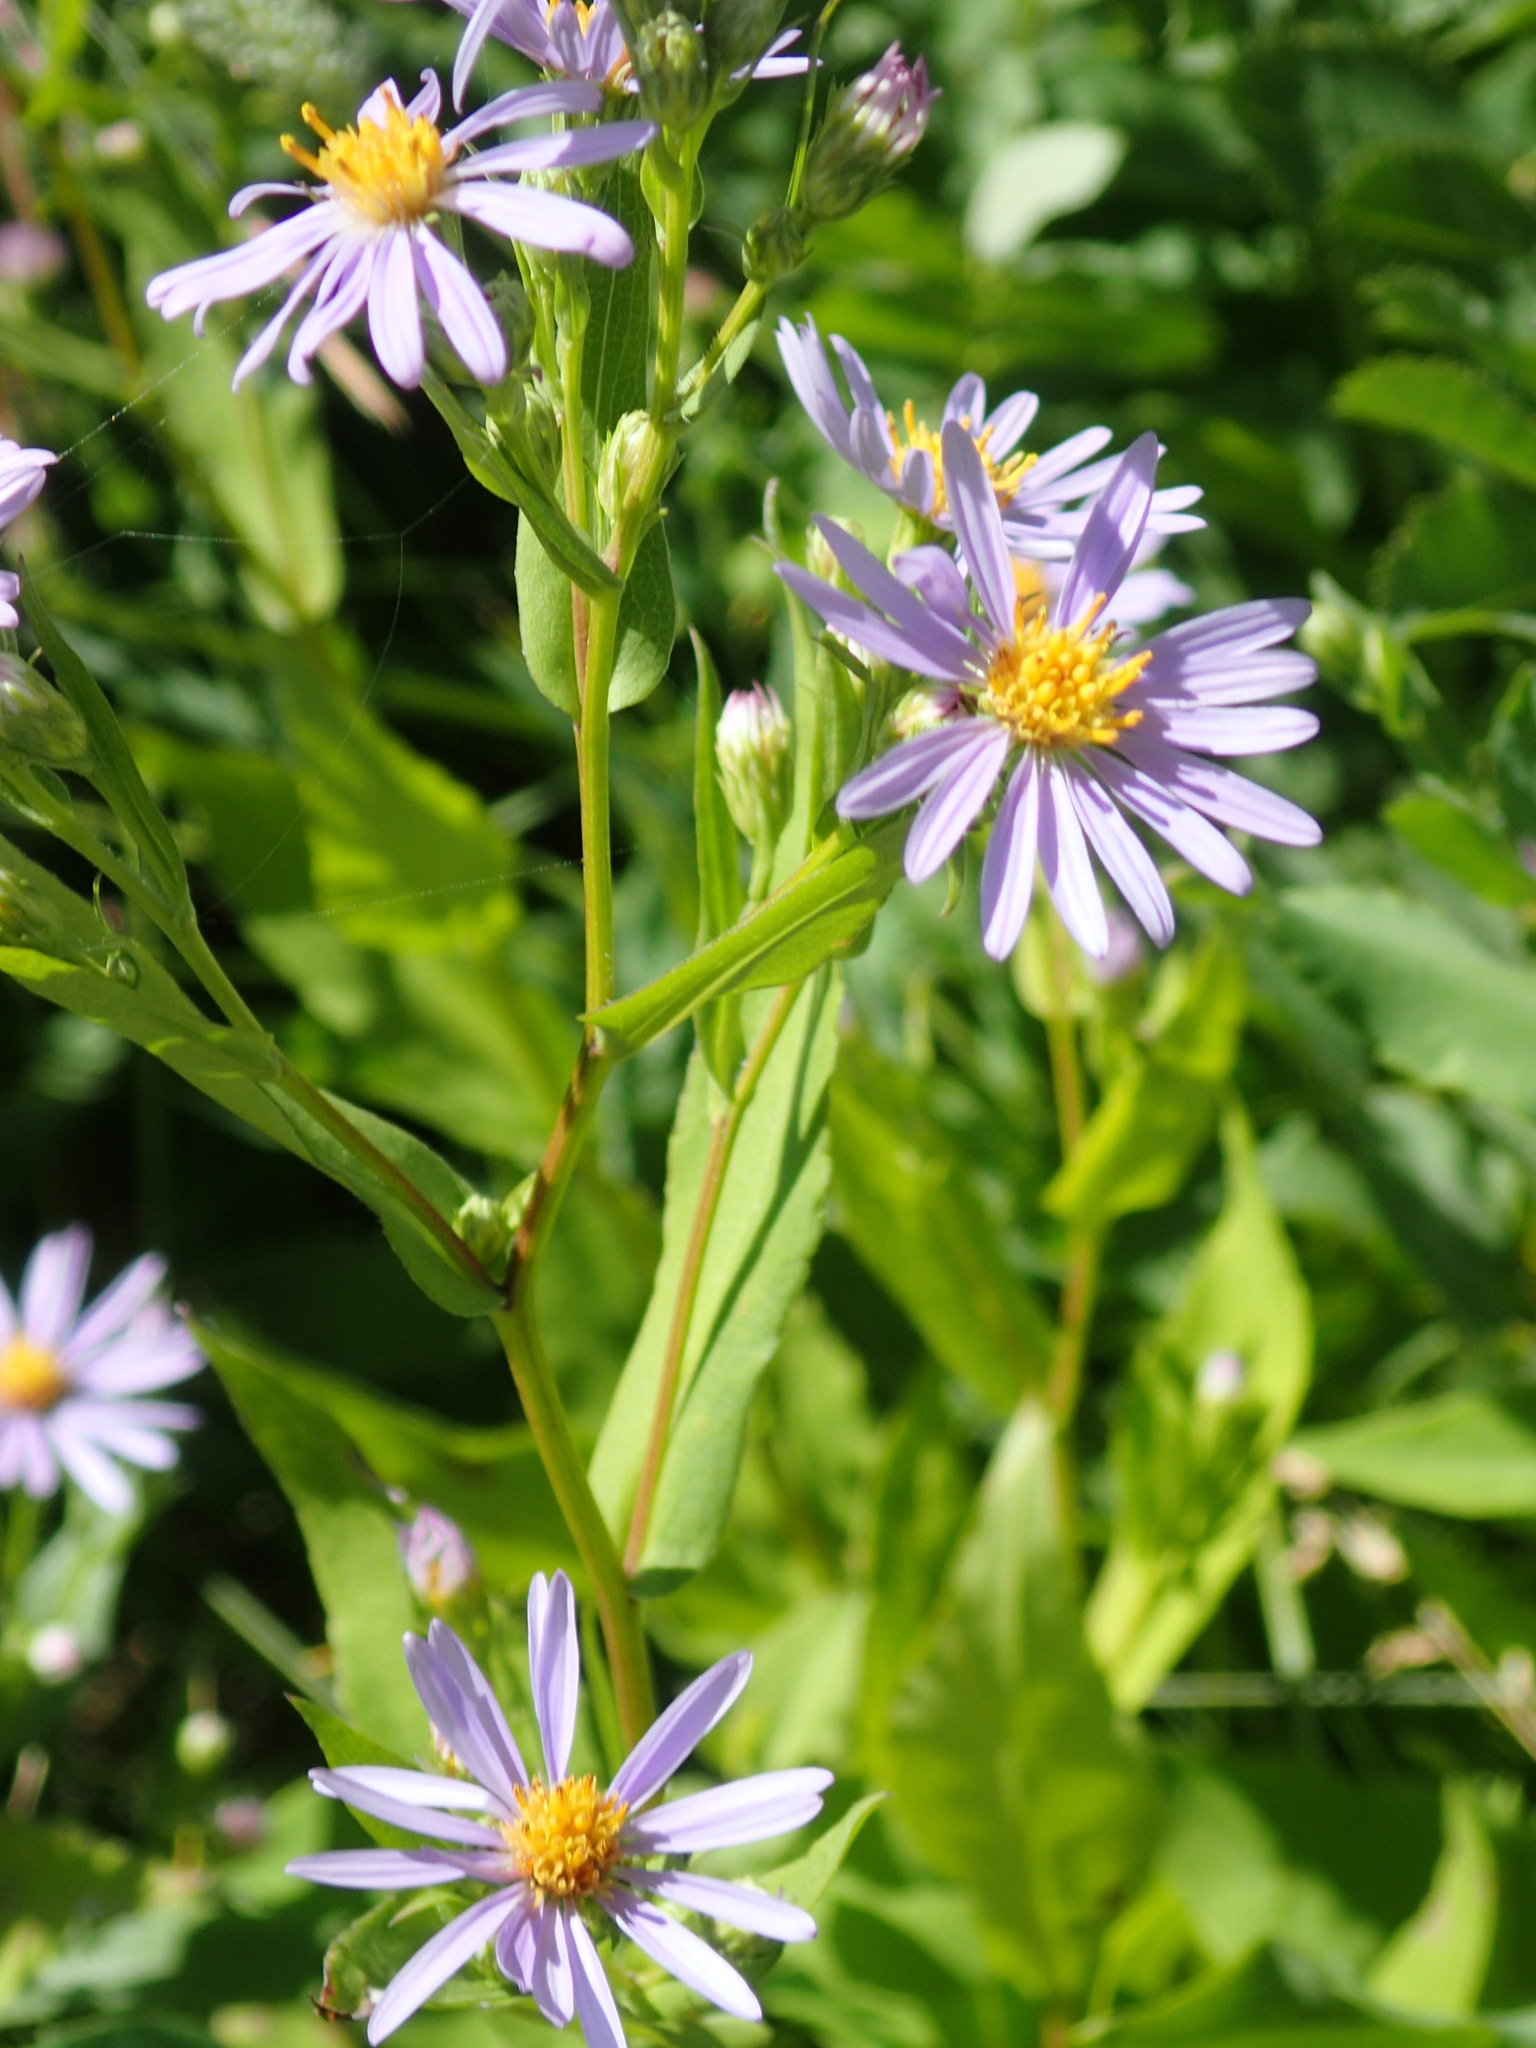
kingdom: Plantae
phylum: Tracheophyta
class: Magnoliopsida
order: Asterales
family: Asteraceae
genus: Symphyotrichum
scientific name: Symphyotrichum laeve
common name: Glaucous aster
